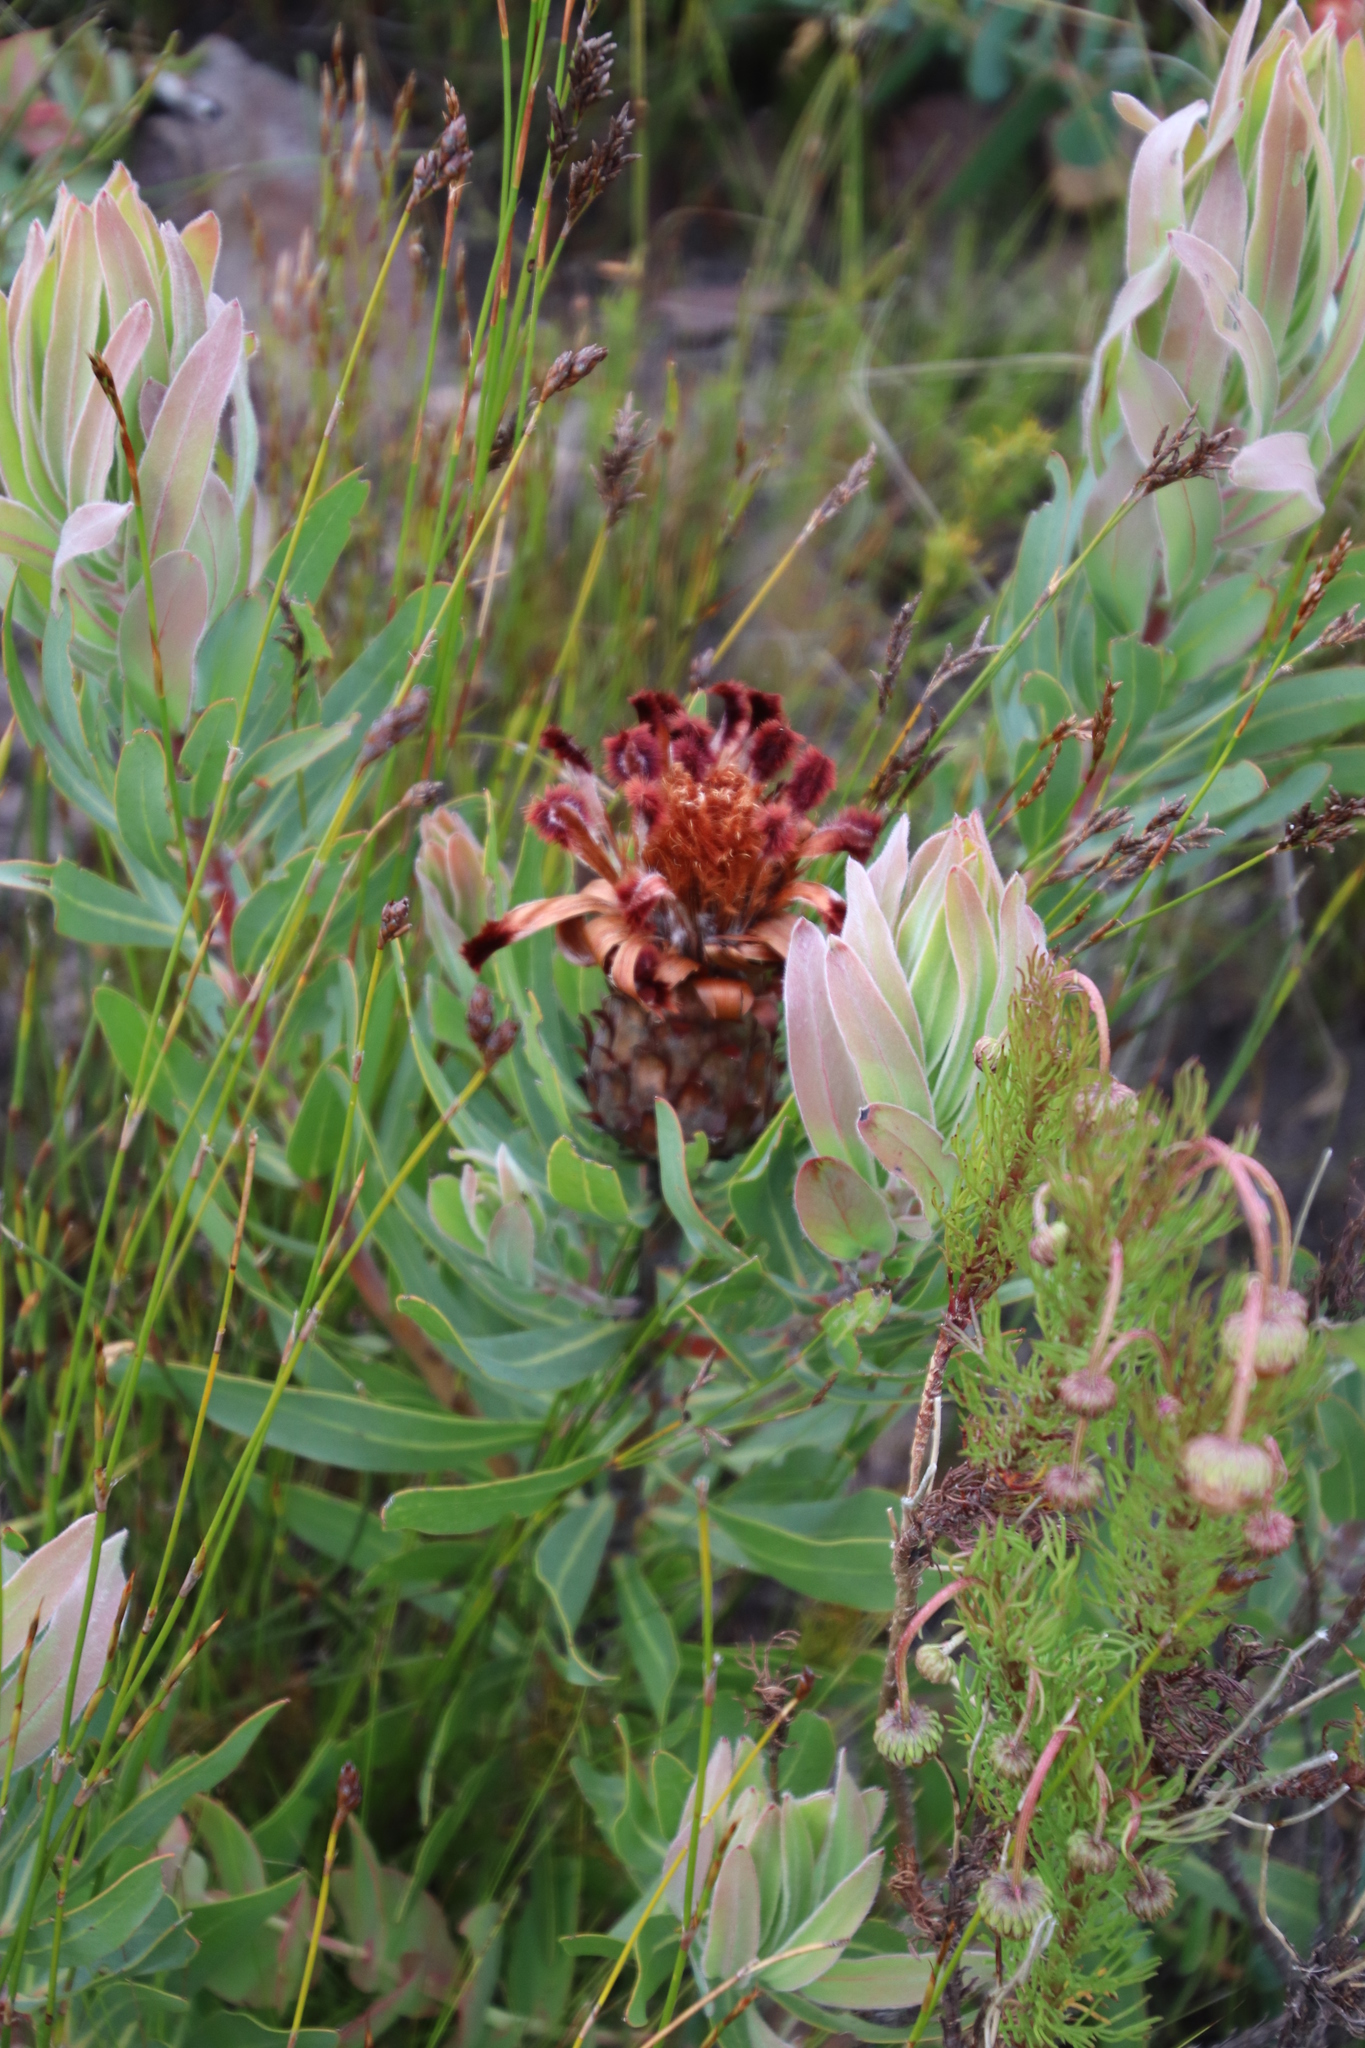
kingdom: Plantae
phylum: Tracheophyta
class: Magnoliopsida
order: Proteales
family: Proteaceae
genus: Protea
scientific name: Protea laurifolia
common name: Grey-leaf sugarbsh
